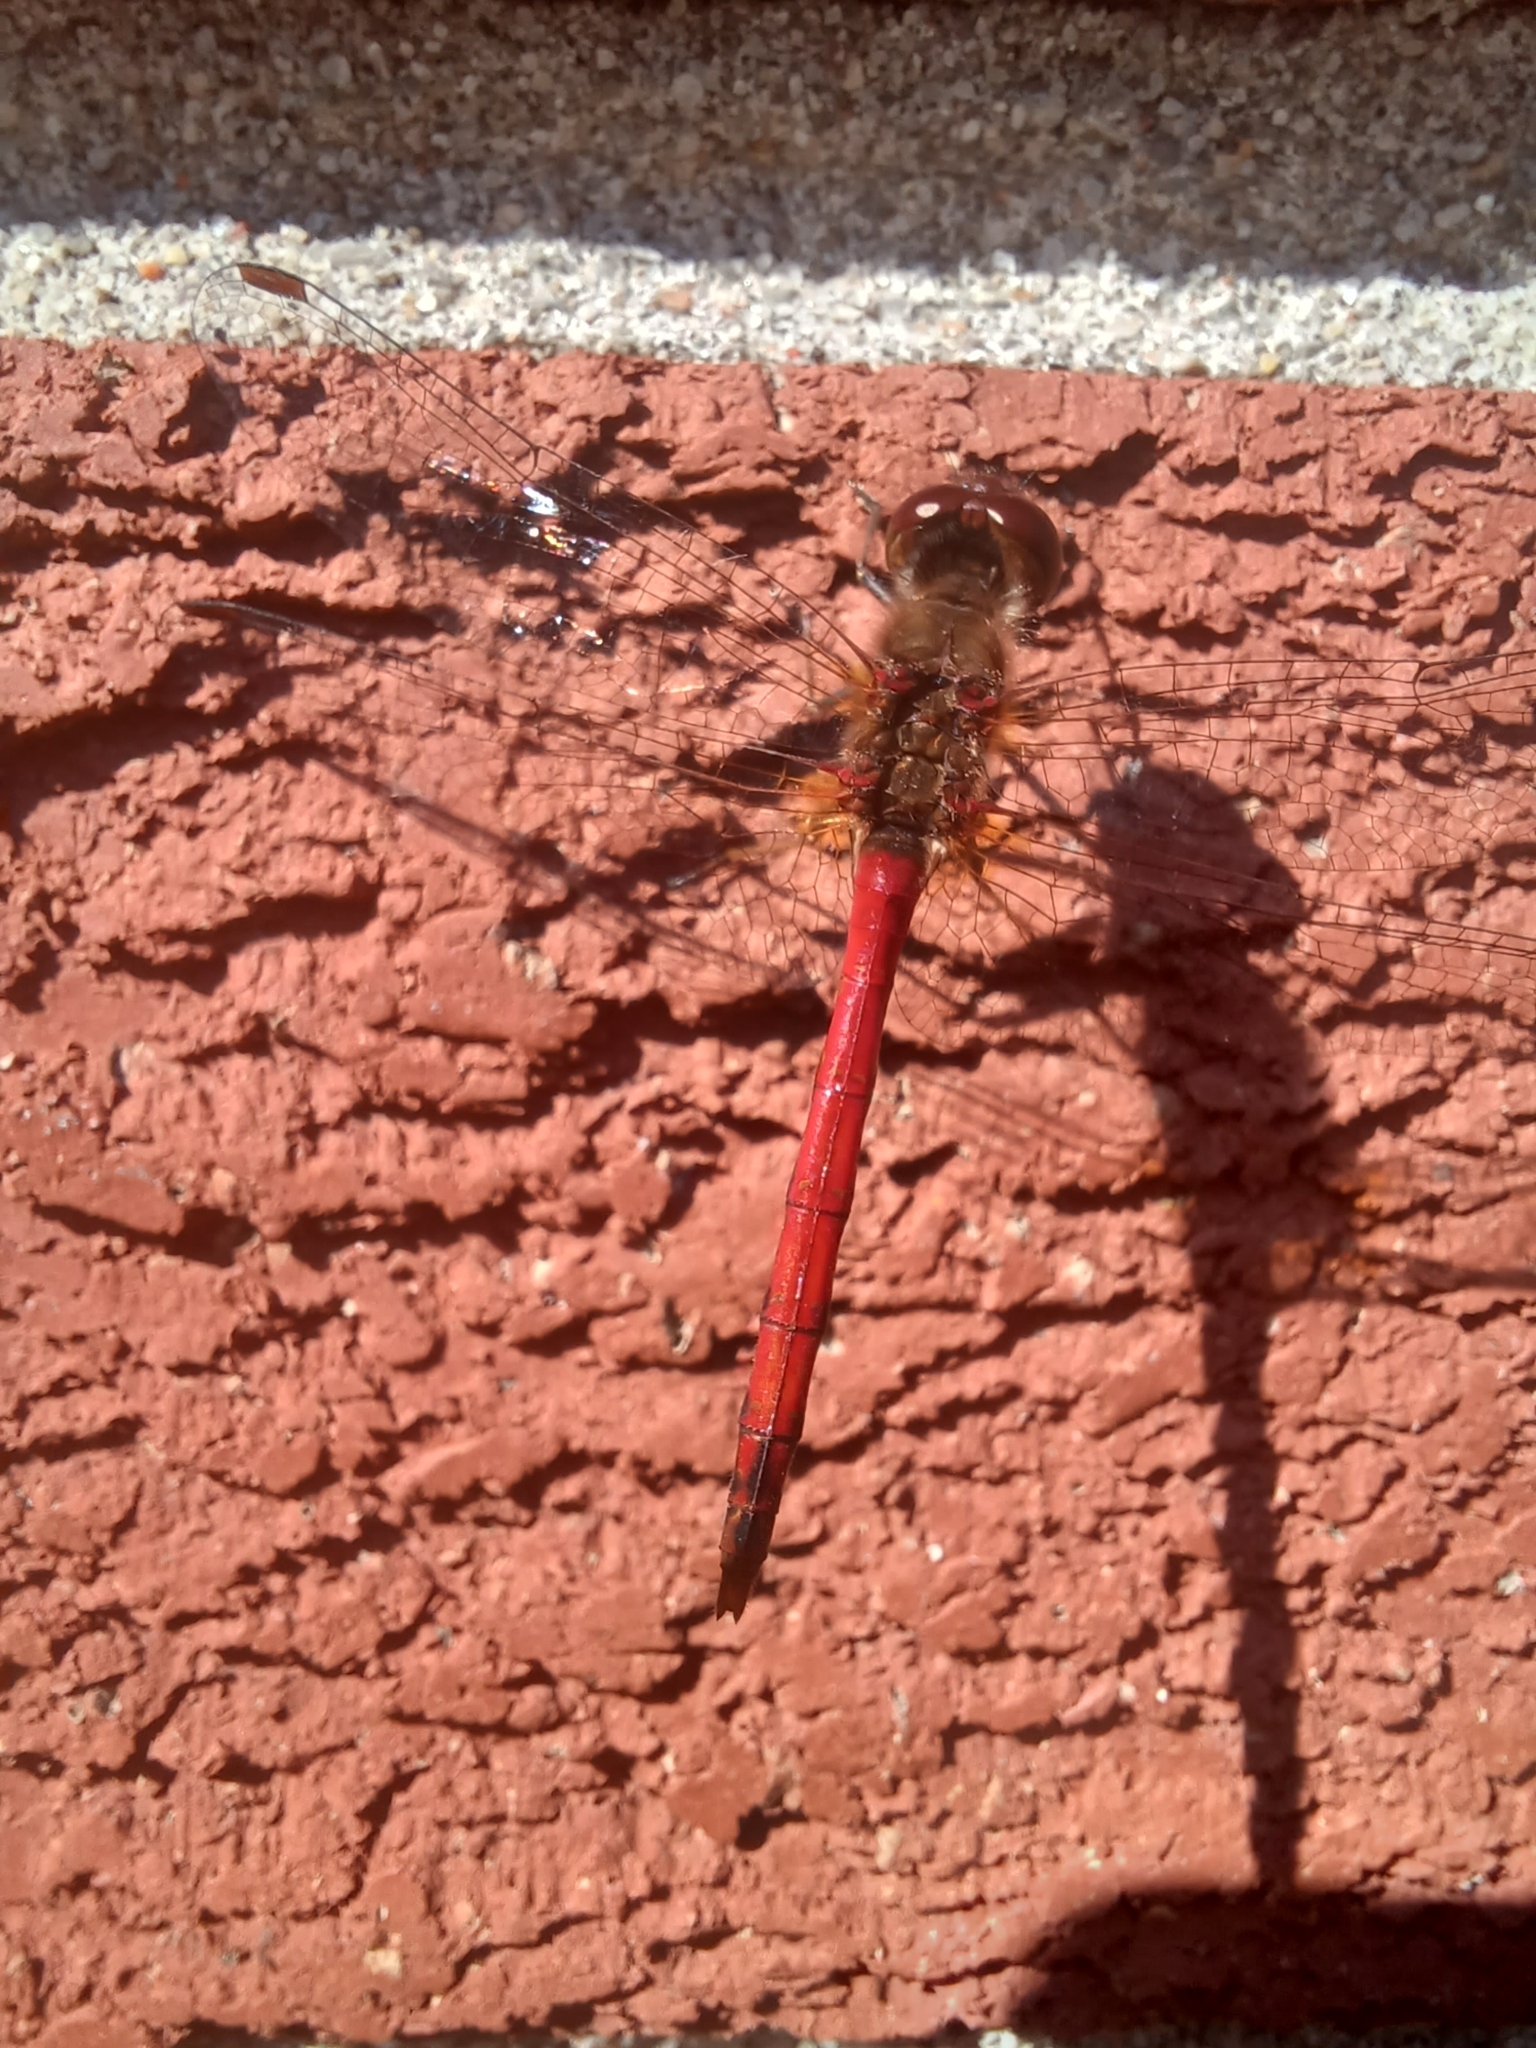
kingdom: Animalia
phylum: Arthropoda
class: Insecta
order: Odonata
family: Libellulidae
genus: Sympetrum
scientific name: Sympetrum vicinum
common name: Autumn meadowhawk
